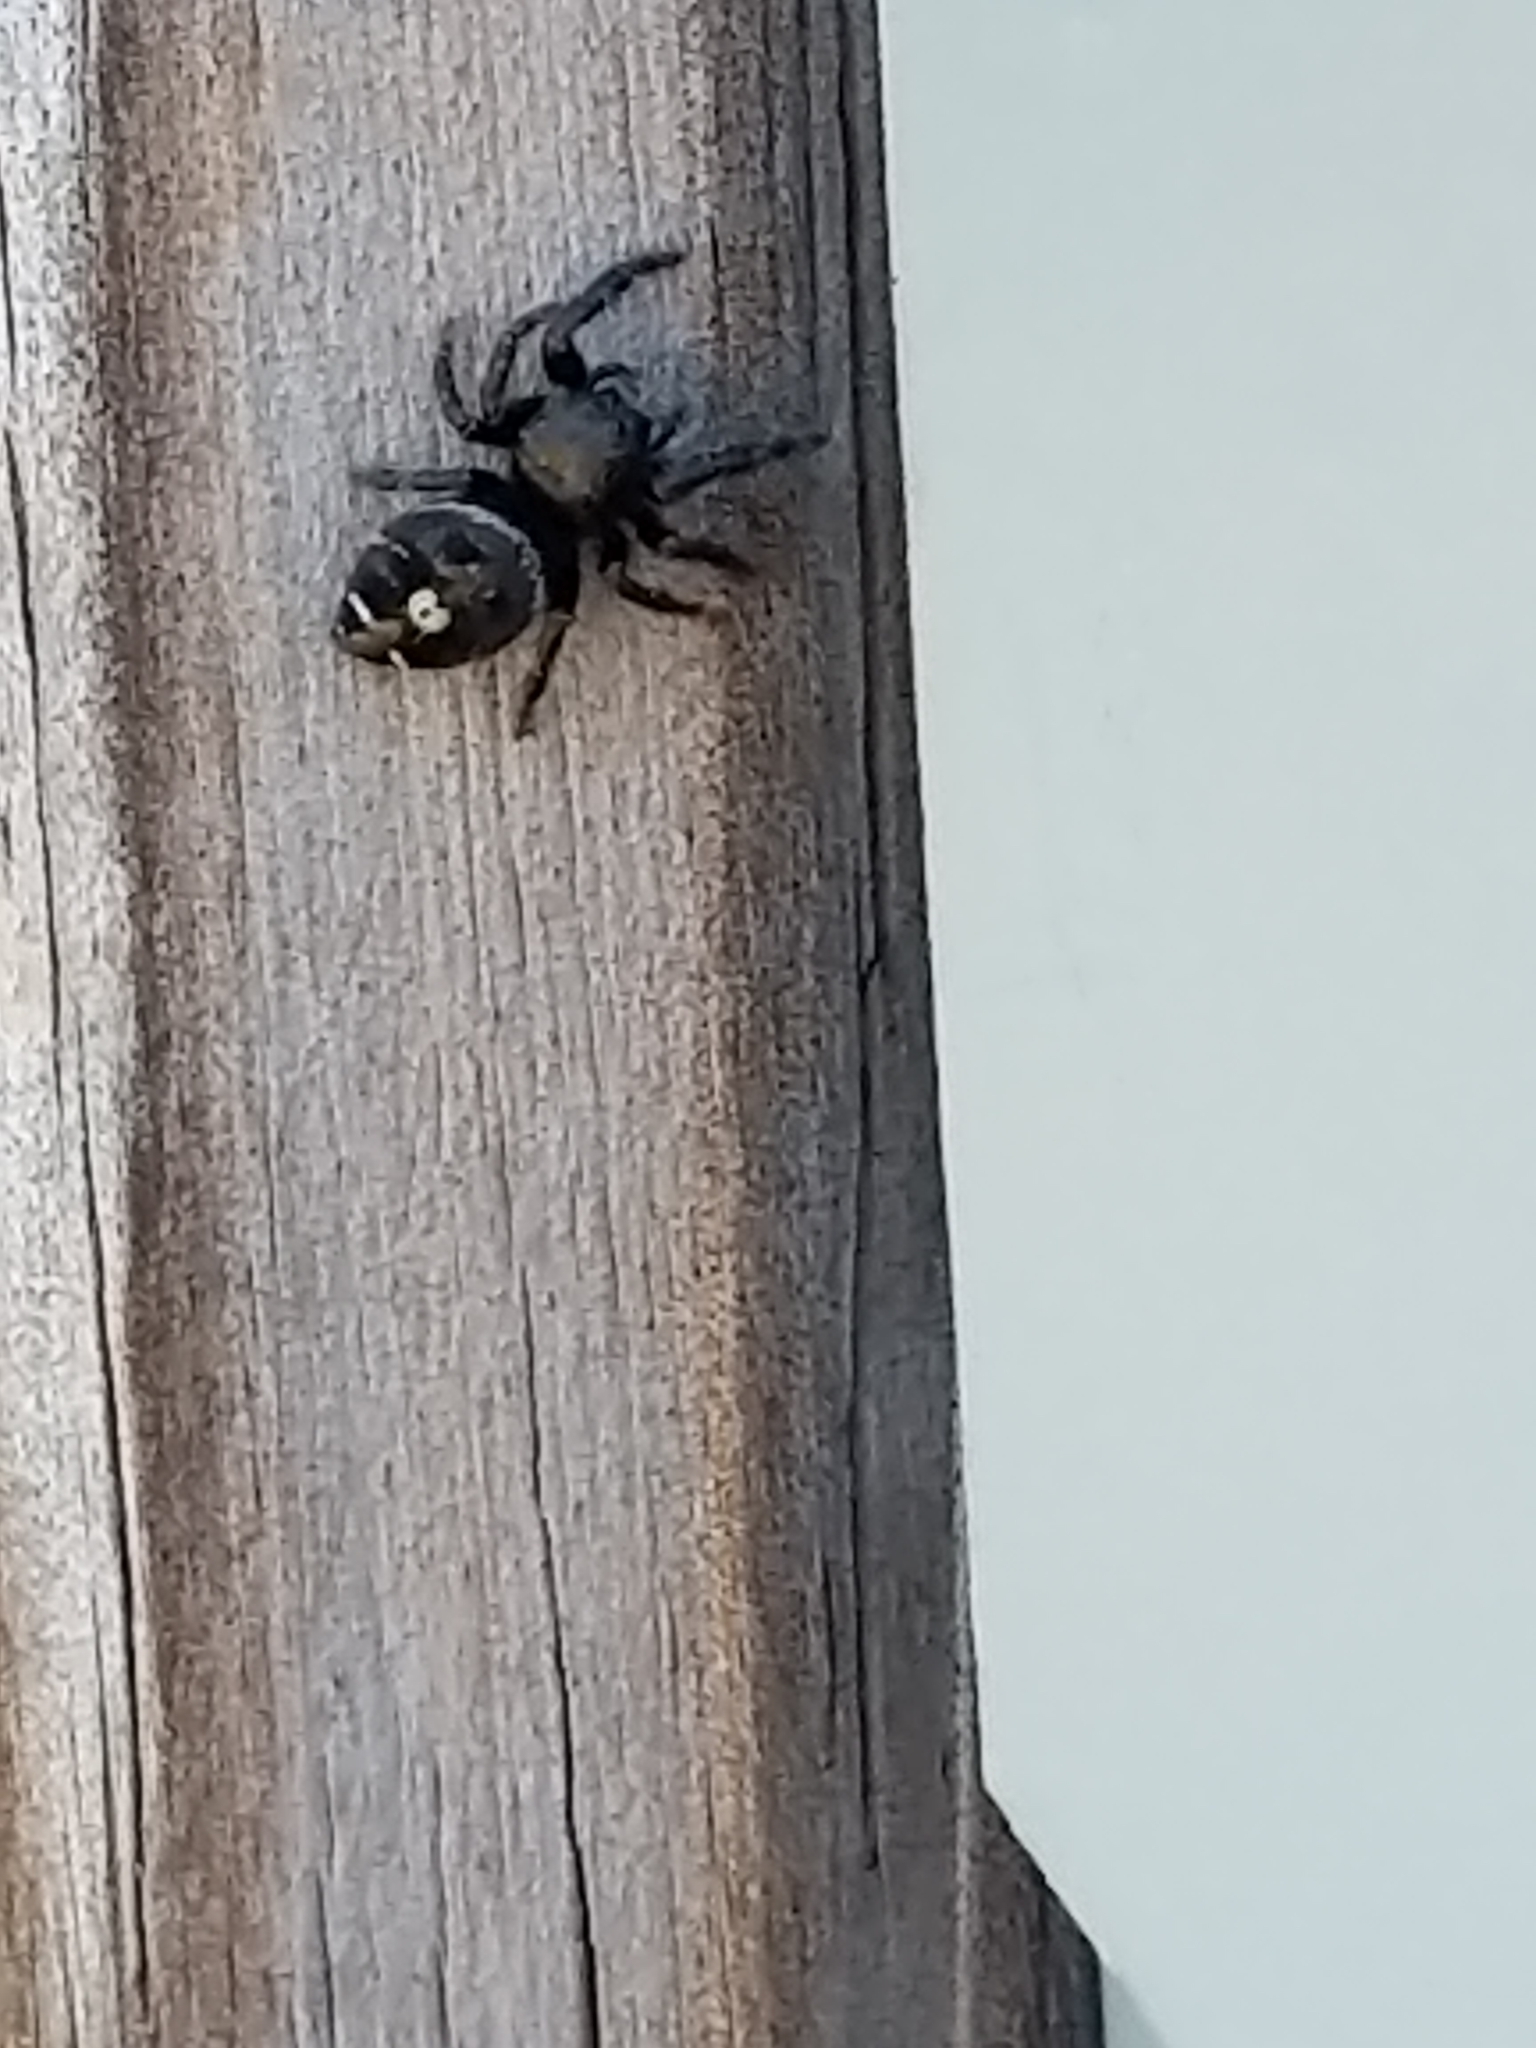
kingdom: Animalia
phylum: Arthropoda
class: Arachnida
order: Araneae
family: Salticidae
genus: Phidippus
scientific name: Phidippus audax
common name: Bold jumper
